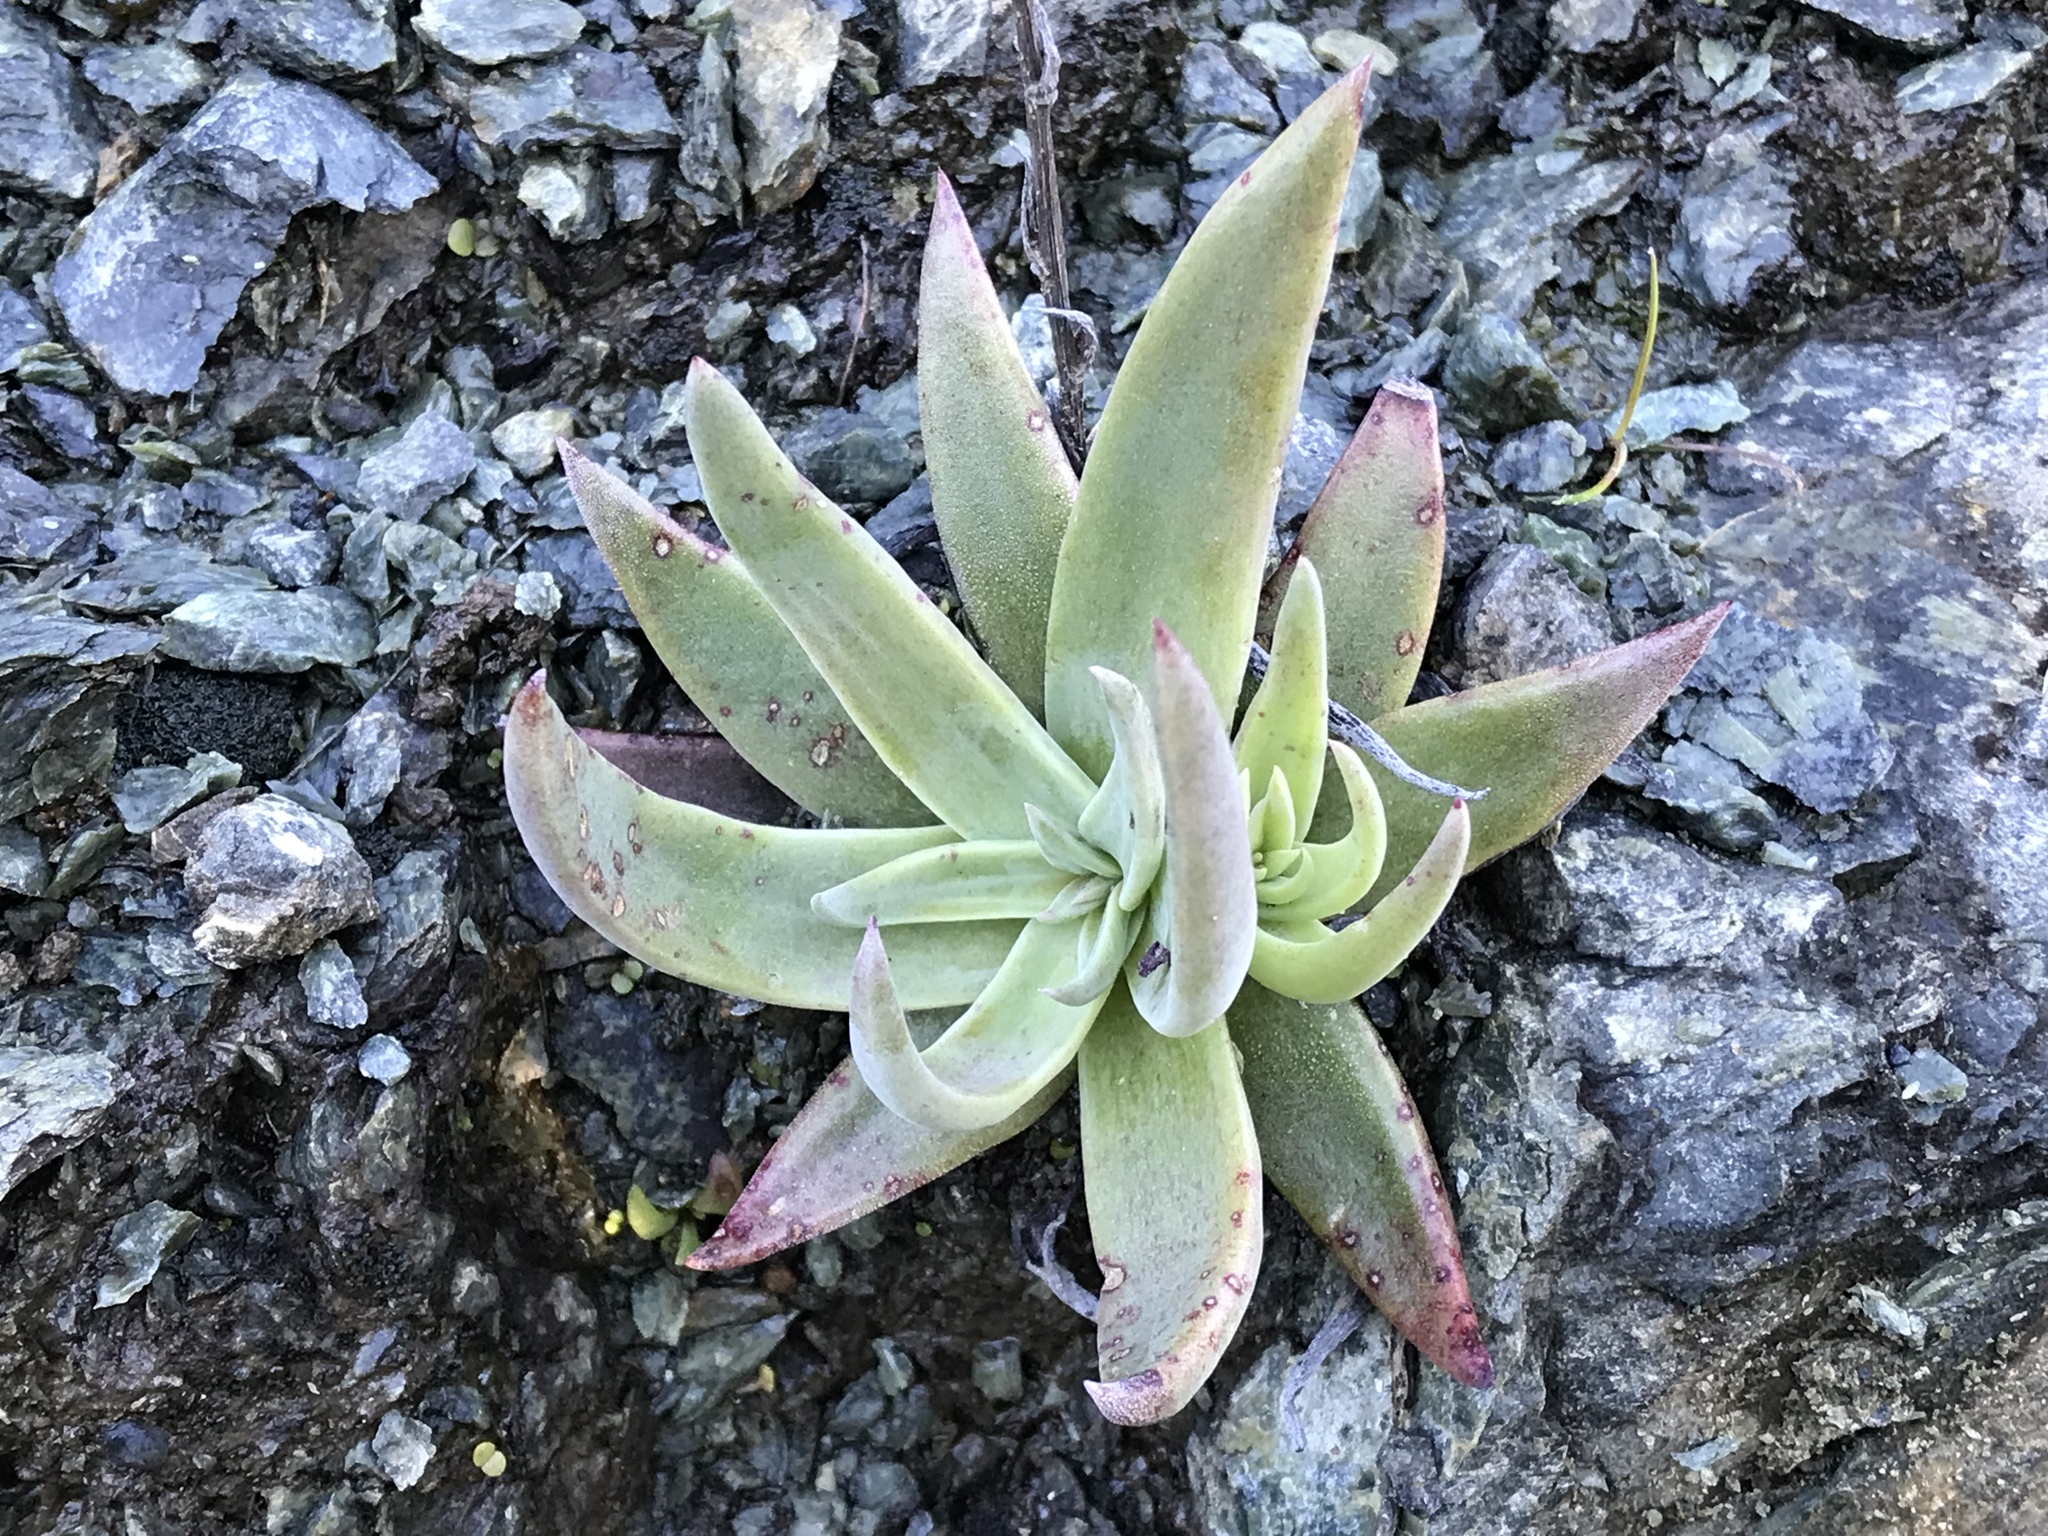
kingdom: Plantae
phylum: Tracheophyta
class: Magnoliopsida
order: Saxifragales
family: Crassulaceae
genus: Dudleya
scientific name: Dudleya cymosa
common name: Canyon dudleya
